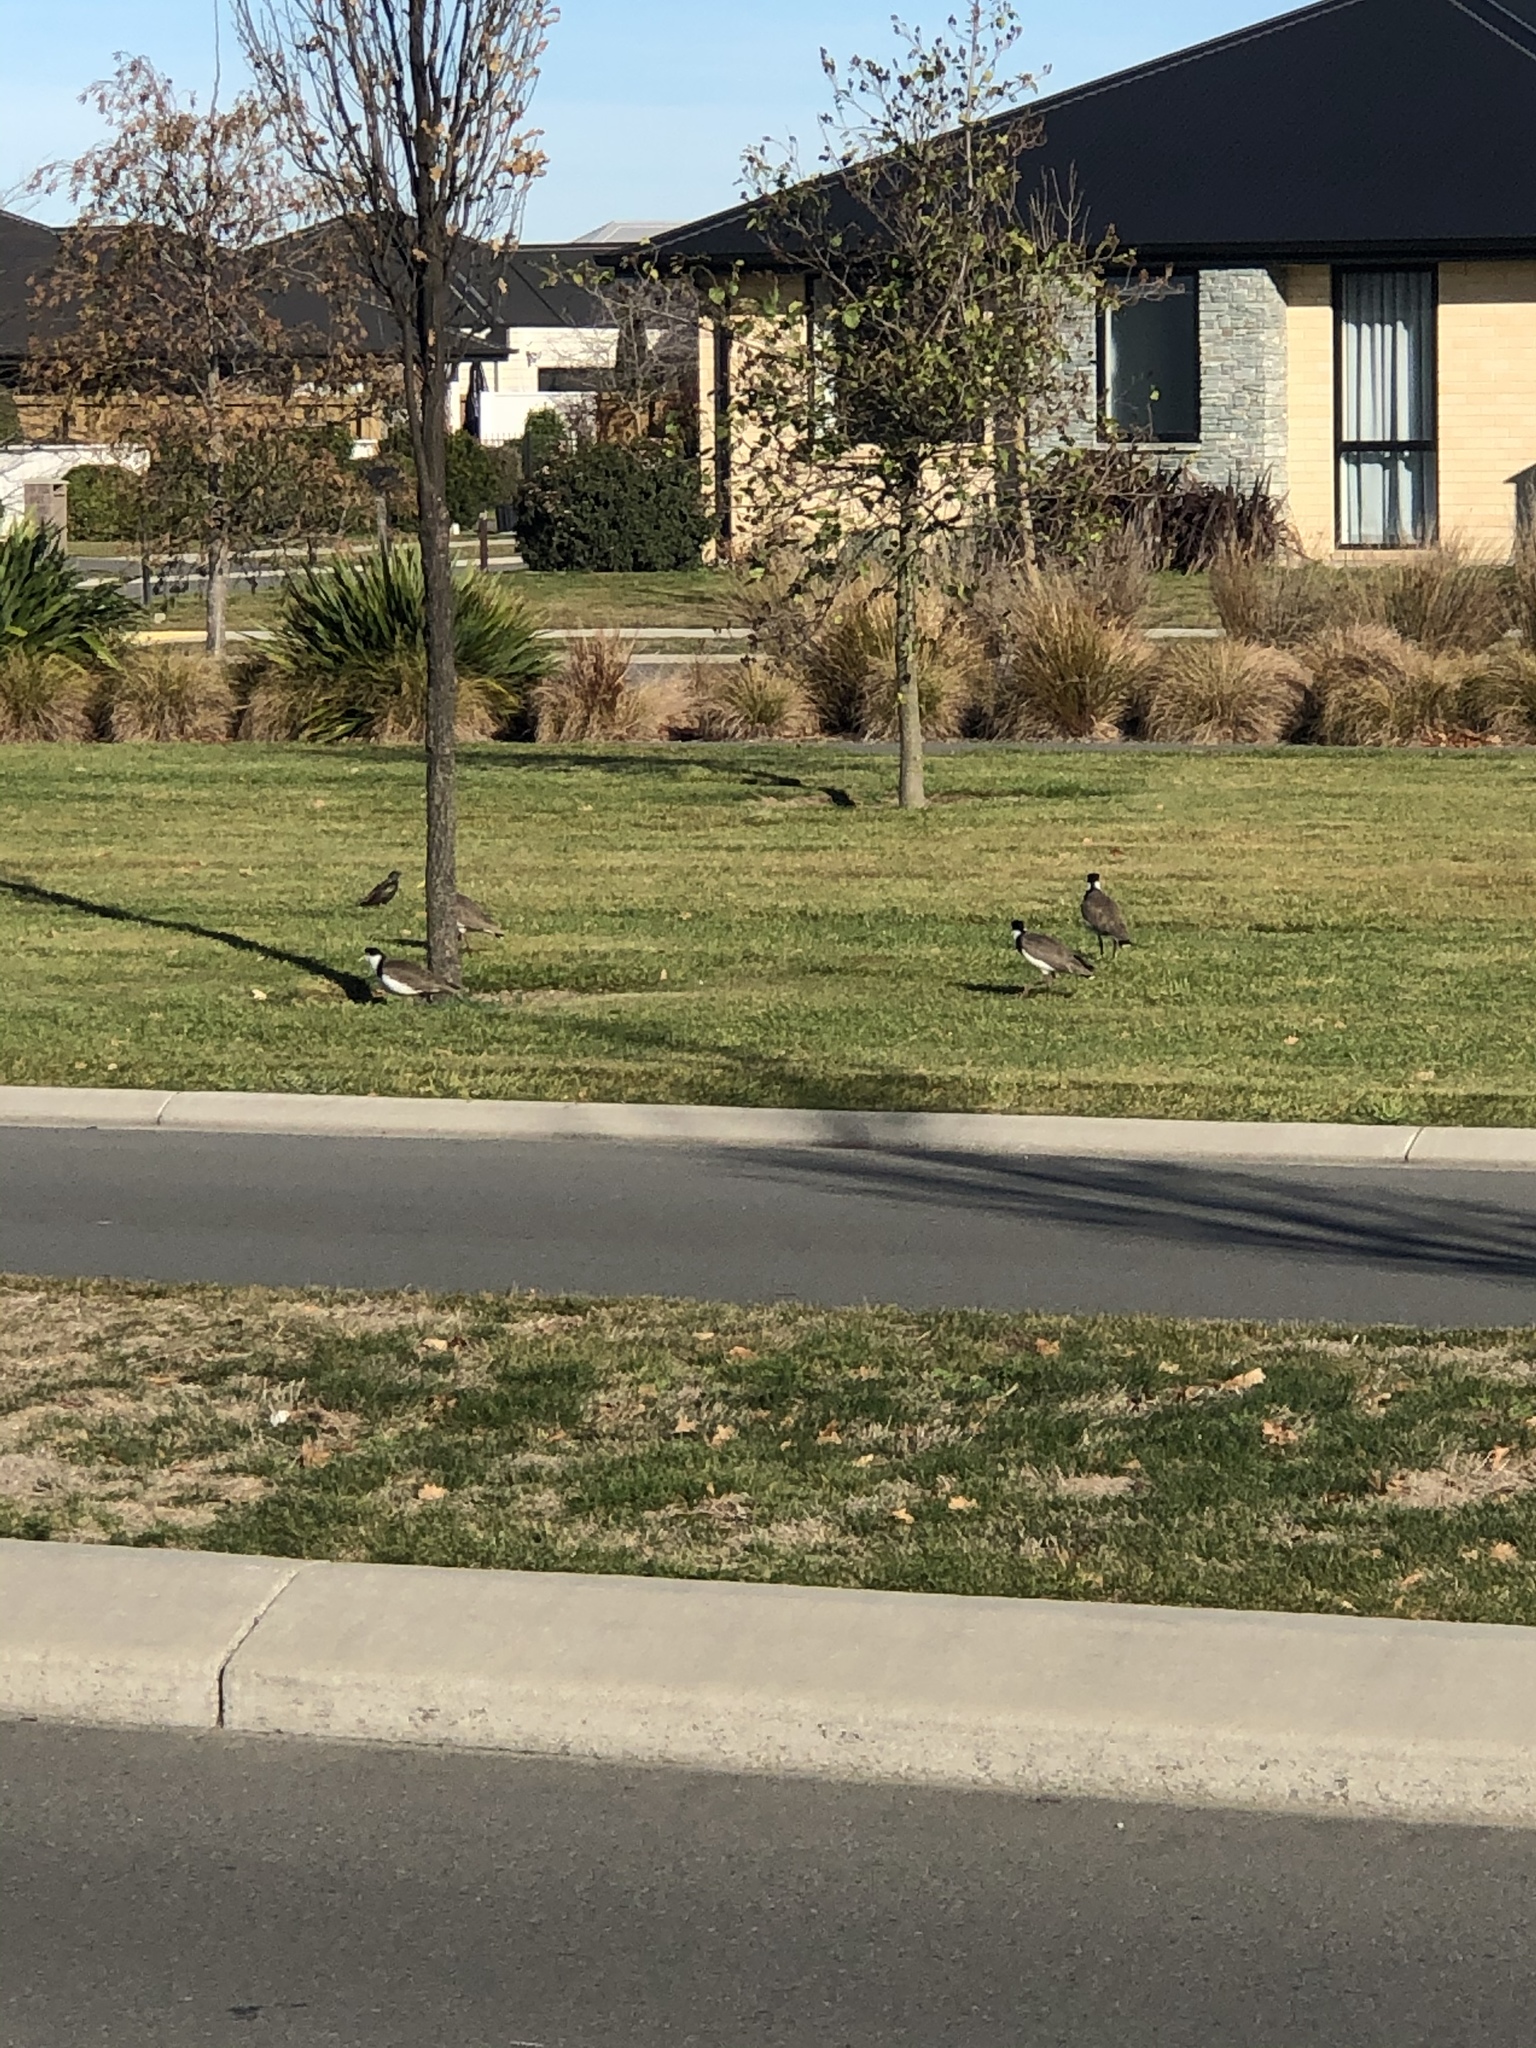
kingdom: Animalia
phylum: Chordata
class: Aves
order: Charadriiformes
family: Charadriidae
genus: Vanellus
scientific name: Vanellus miles
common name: Masked lapwing
